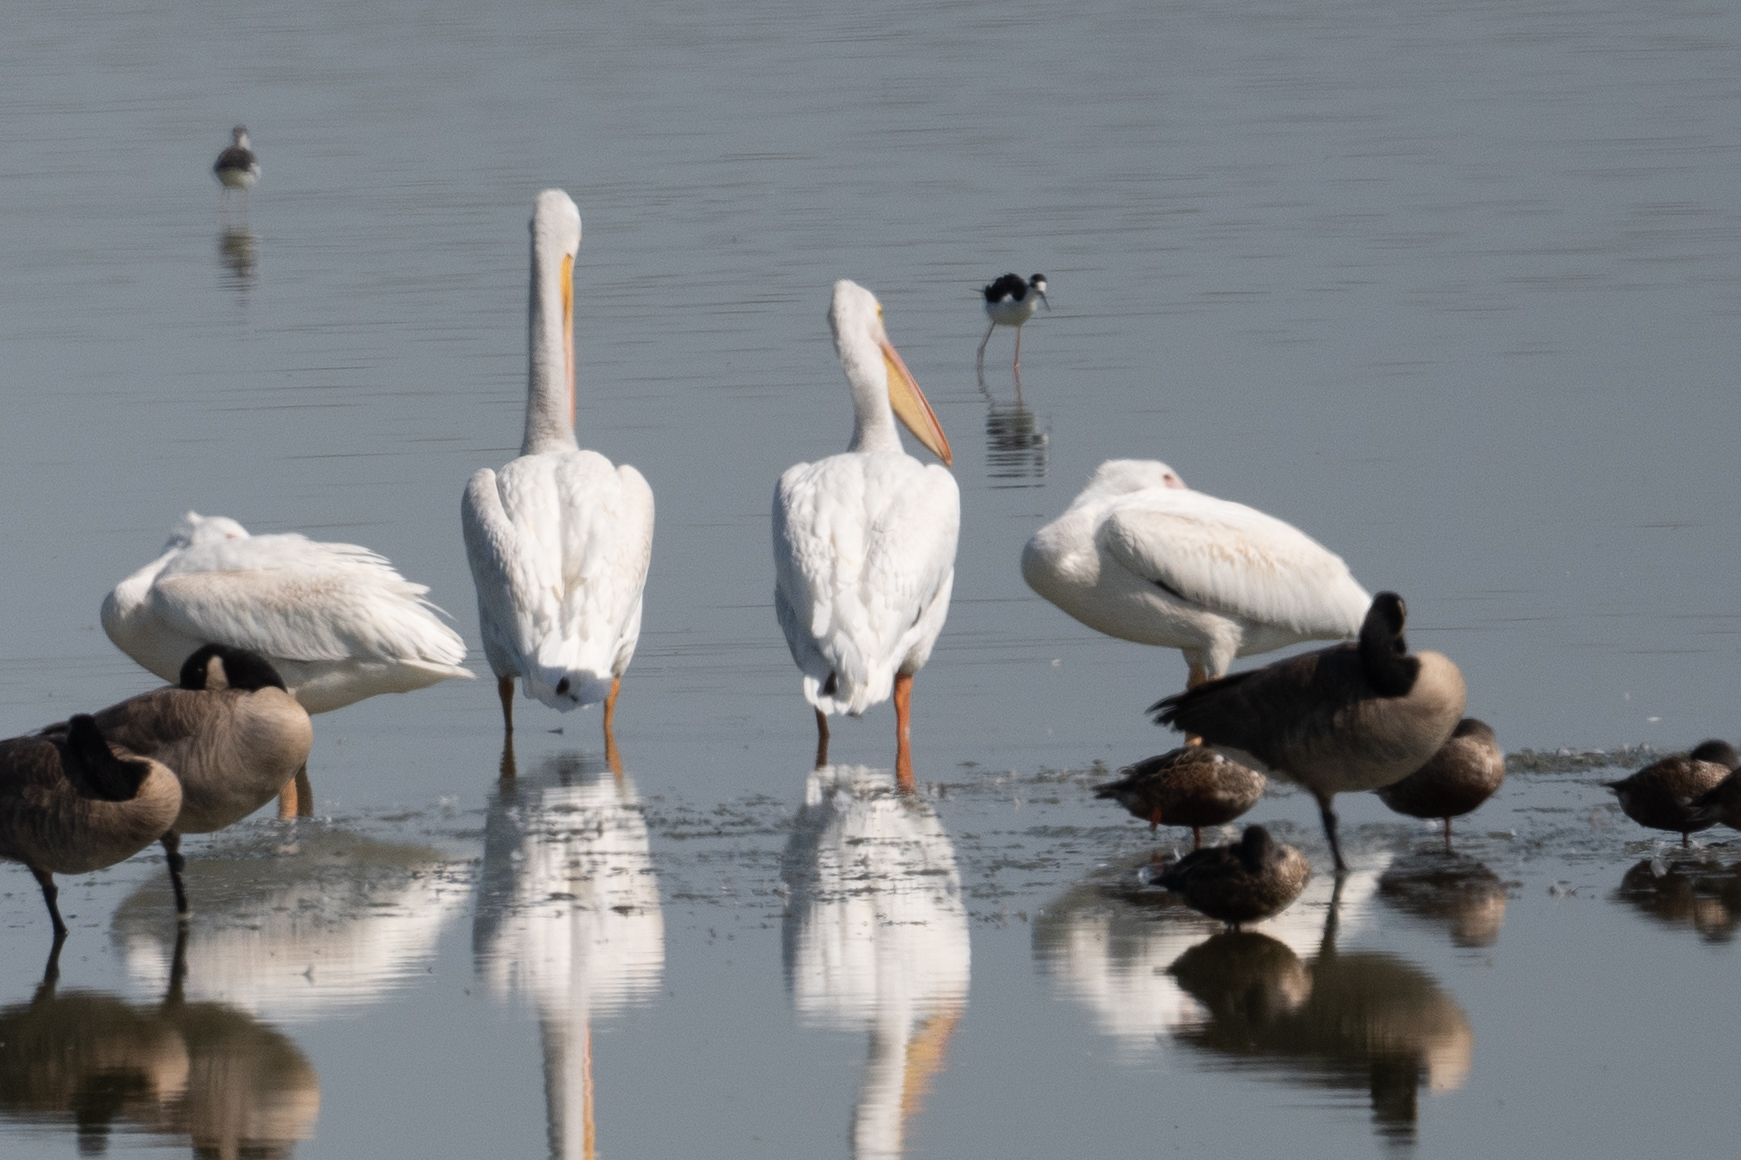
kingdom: Animalia
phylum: Chordata
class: Aves
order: Pelecaniformes
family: Pelecanidae
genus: Pelecanus
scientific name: Pelecanus erythrorhynchos
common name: American white pelican
